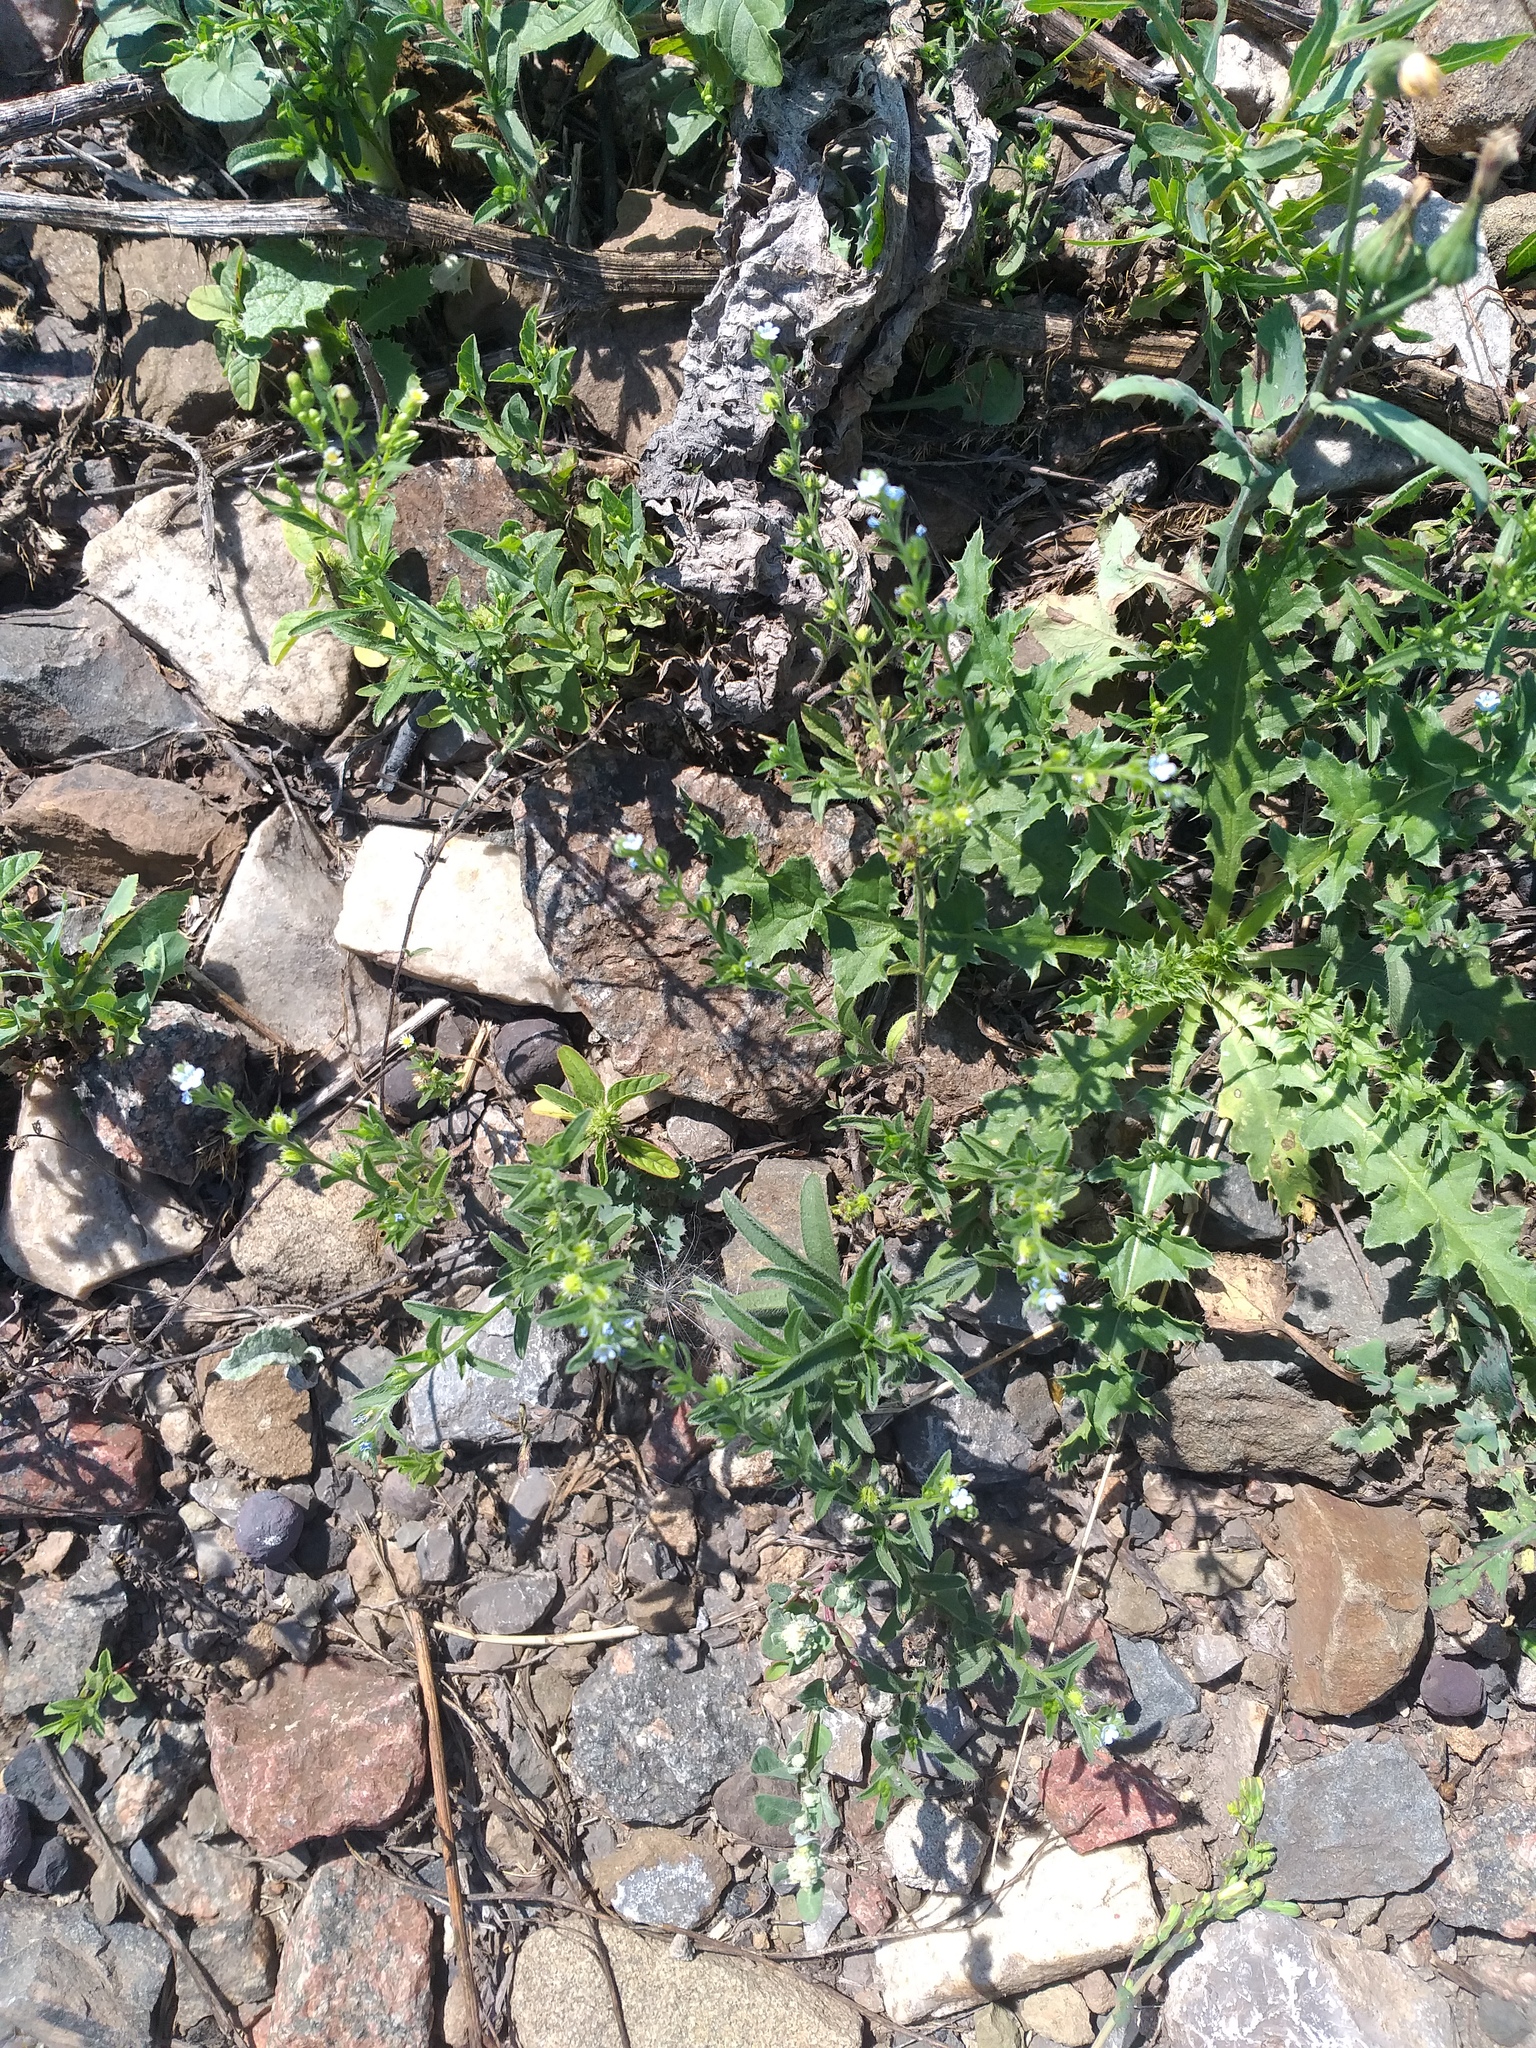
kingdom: Plantae
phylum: Tracheophyta
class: Magnoliopsida
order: Boraginales
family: Boraginaceae
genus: Lappula
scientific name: Lappula squarrosa
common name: European stickseed
